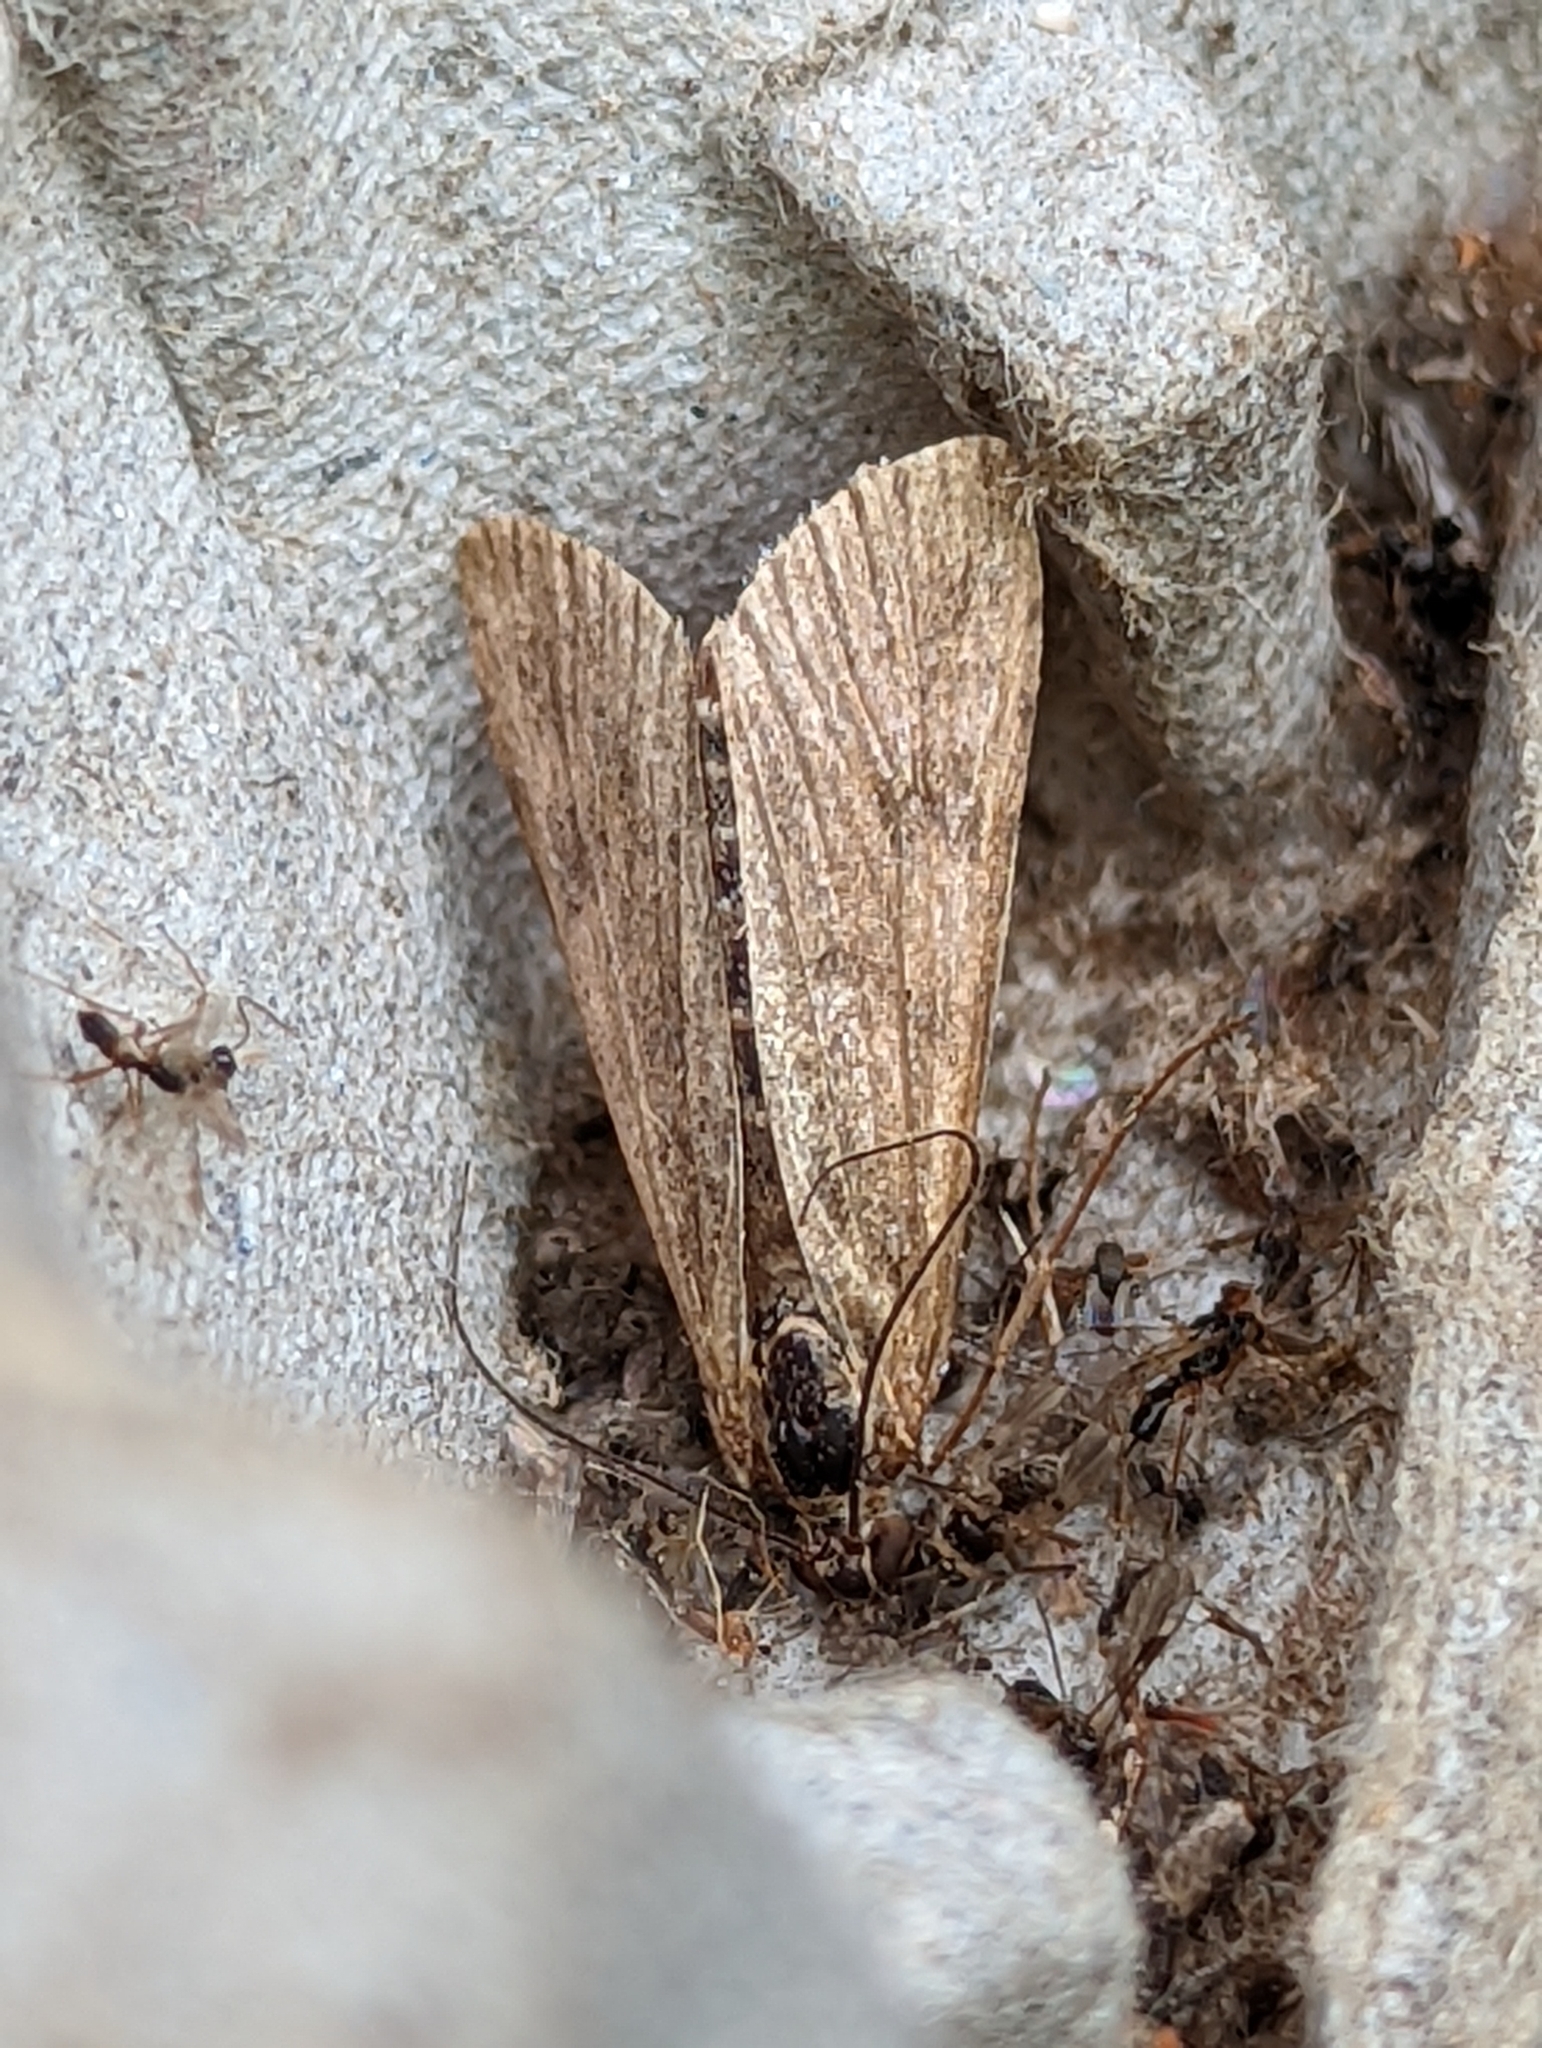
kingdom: Animalia
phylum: Arthropoda
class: Insecta
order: Lepidoptera
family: Crambidae
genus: Nomophila
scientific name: Nomophila noctuella
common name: Rush veneer
